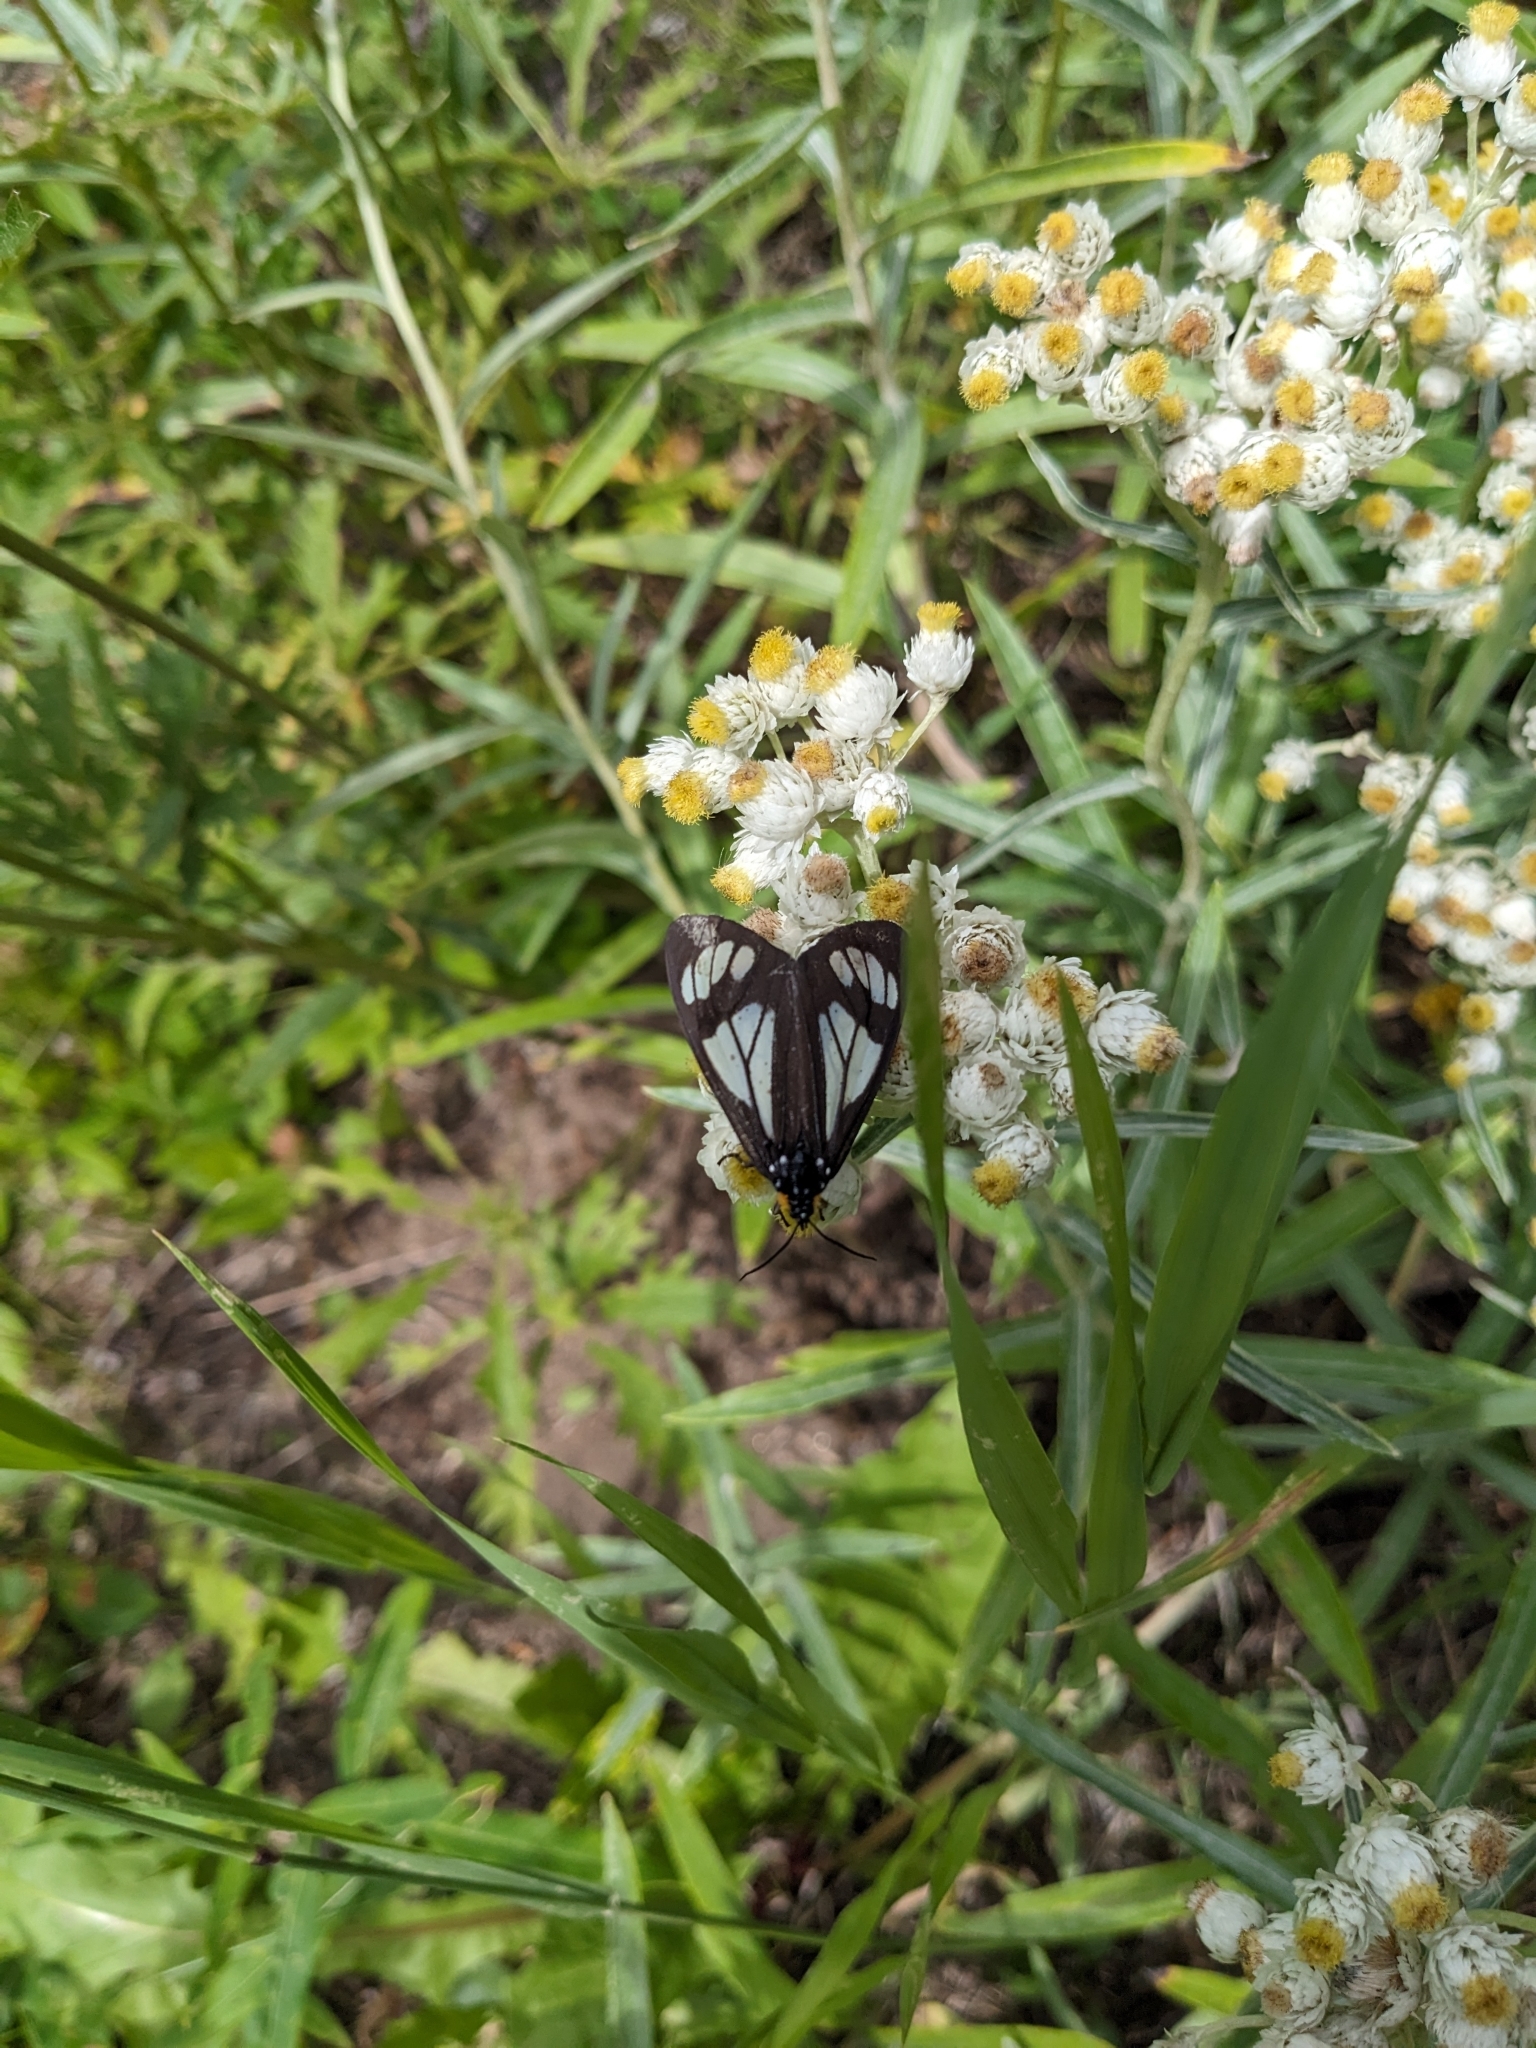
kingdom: Animalia
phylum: Arthropoda
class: Insecta
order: Lepidoptera
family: Erebidae
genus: Gnophaela
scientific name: Gnophaela vermiculata
